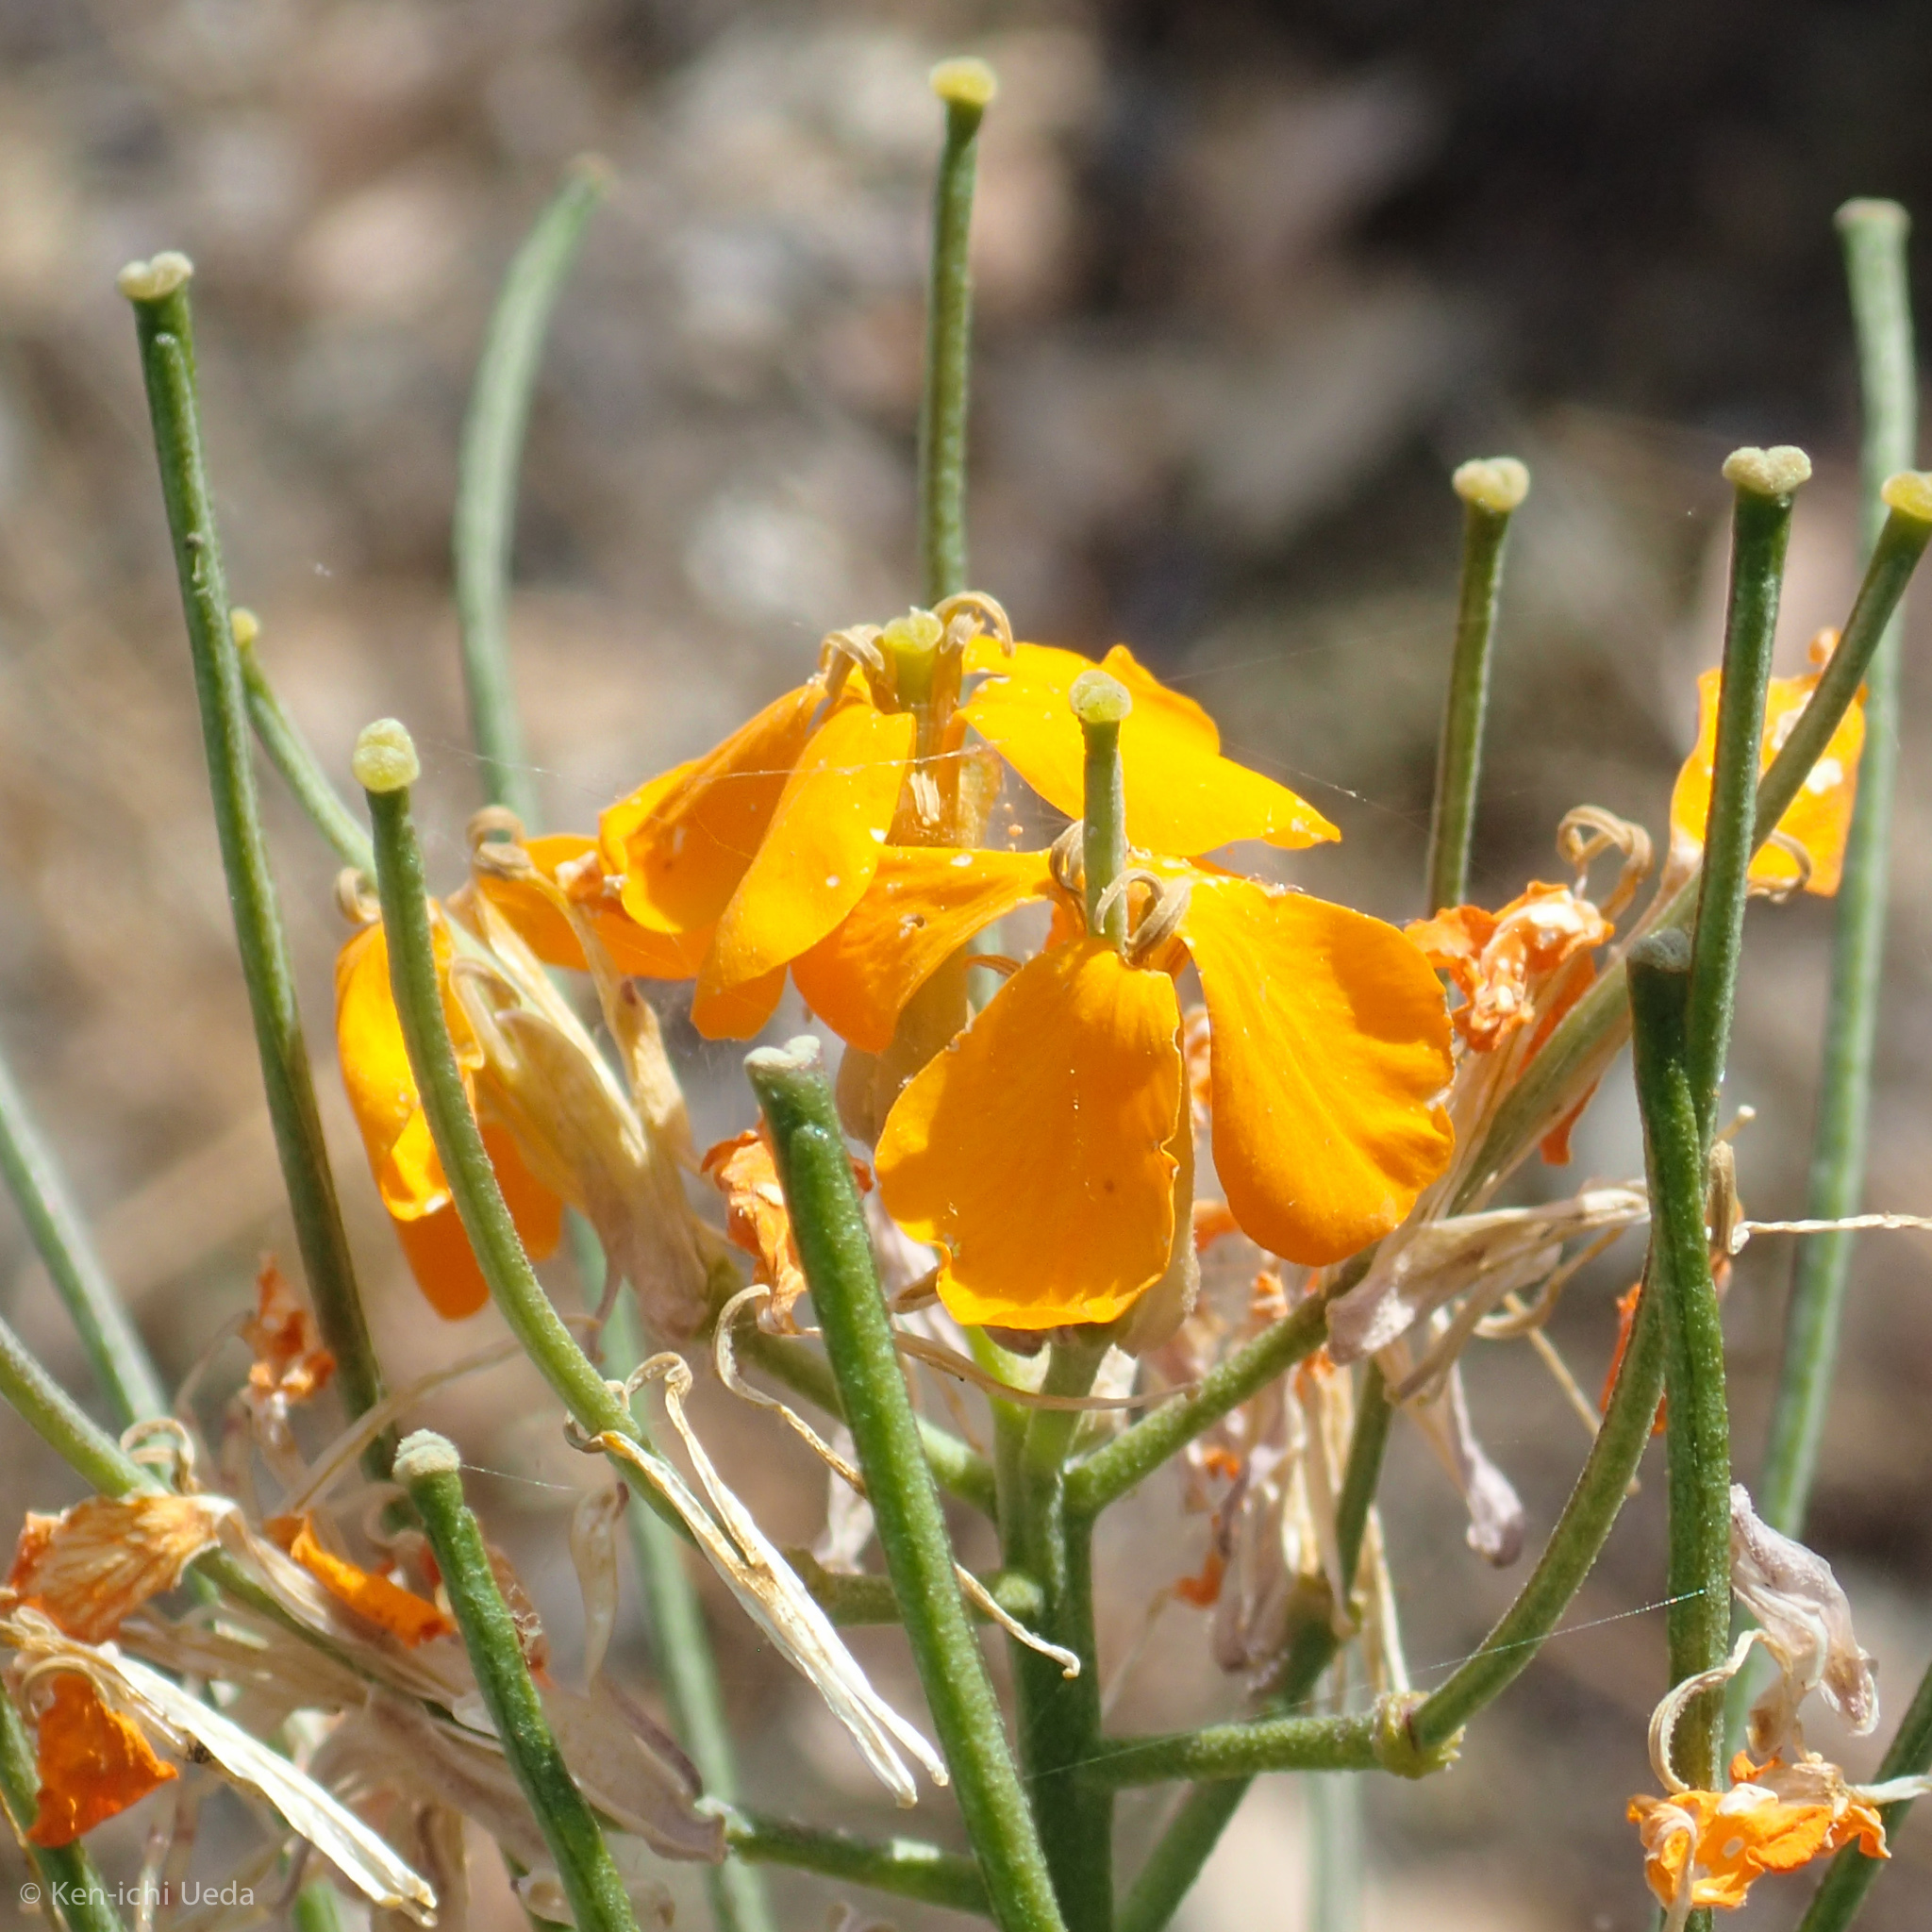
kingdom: Plantae
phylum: Tracheophyta
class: Magnoliopsida
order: Brassicales
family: Brassicaceae
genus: Erysimum
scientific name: Erysimum capitatum
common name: Western wallflower
